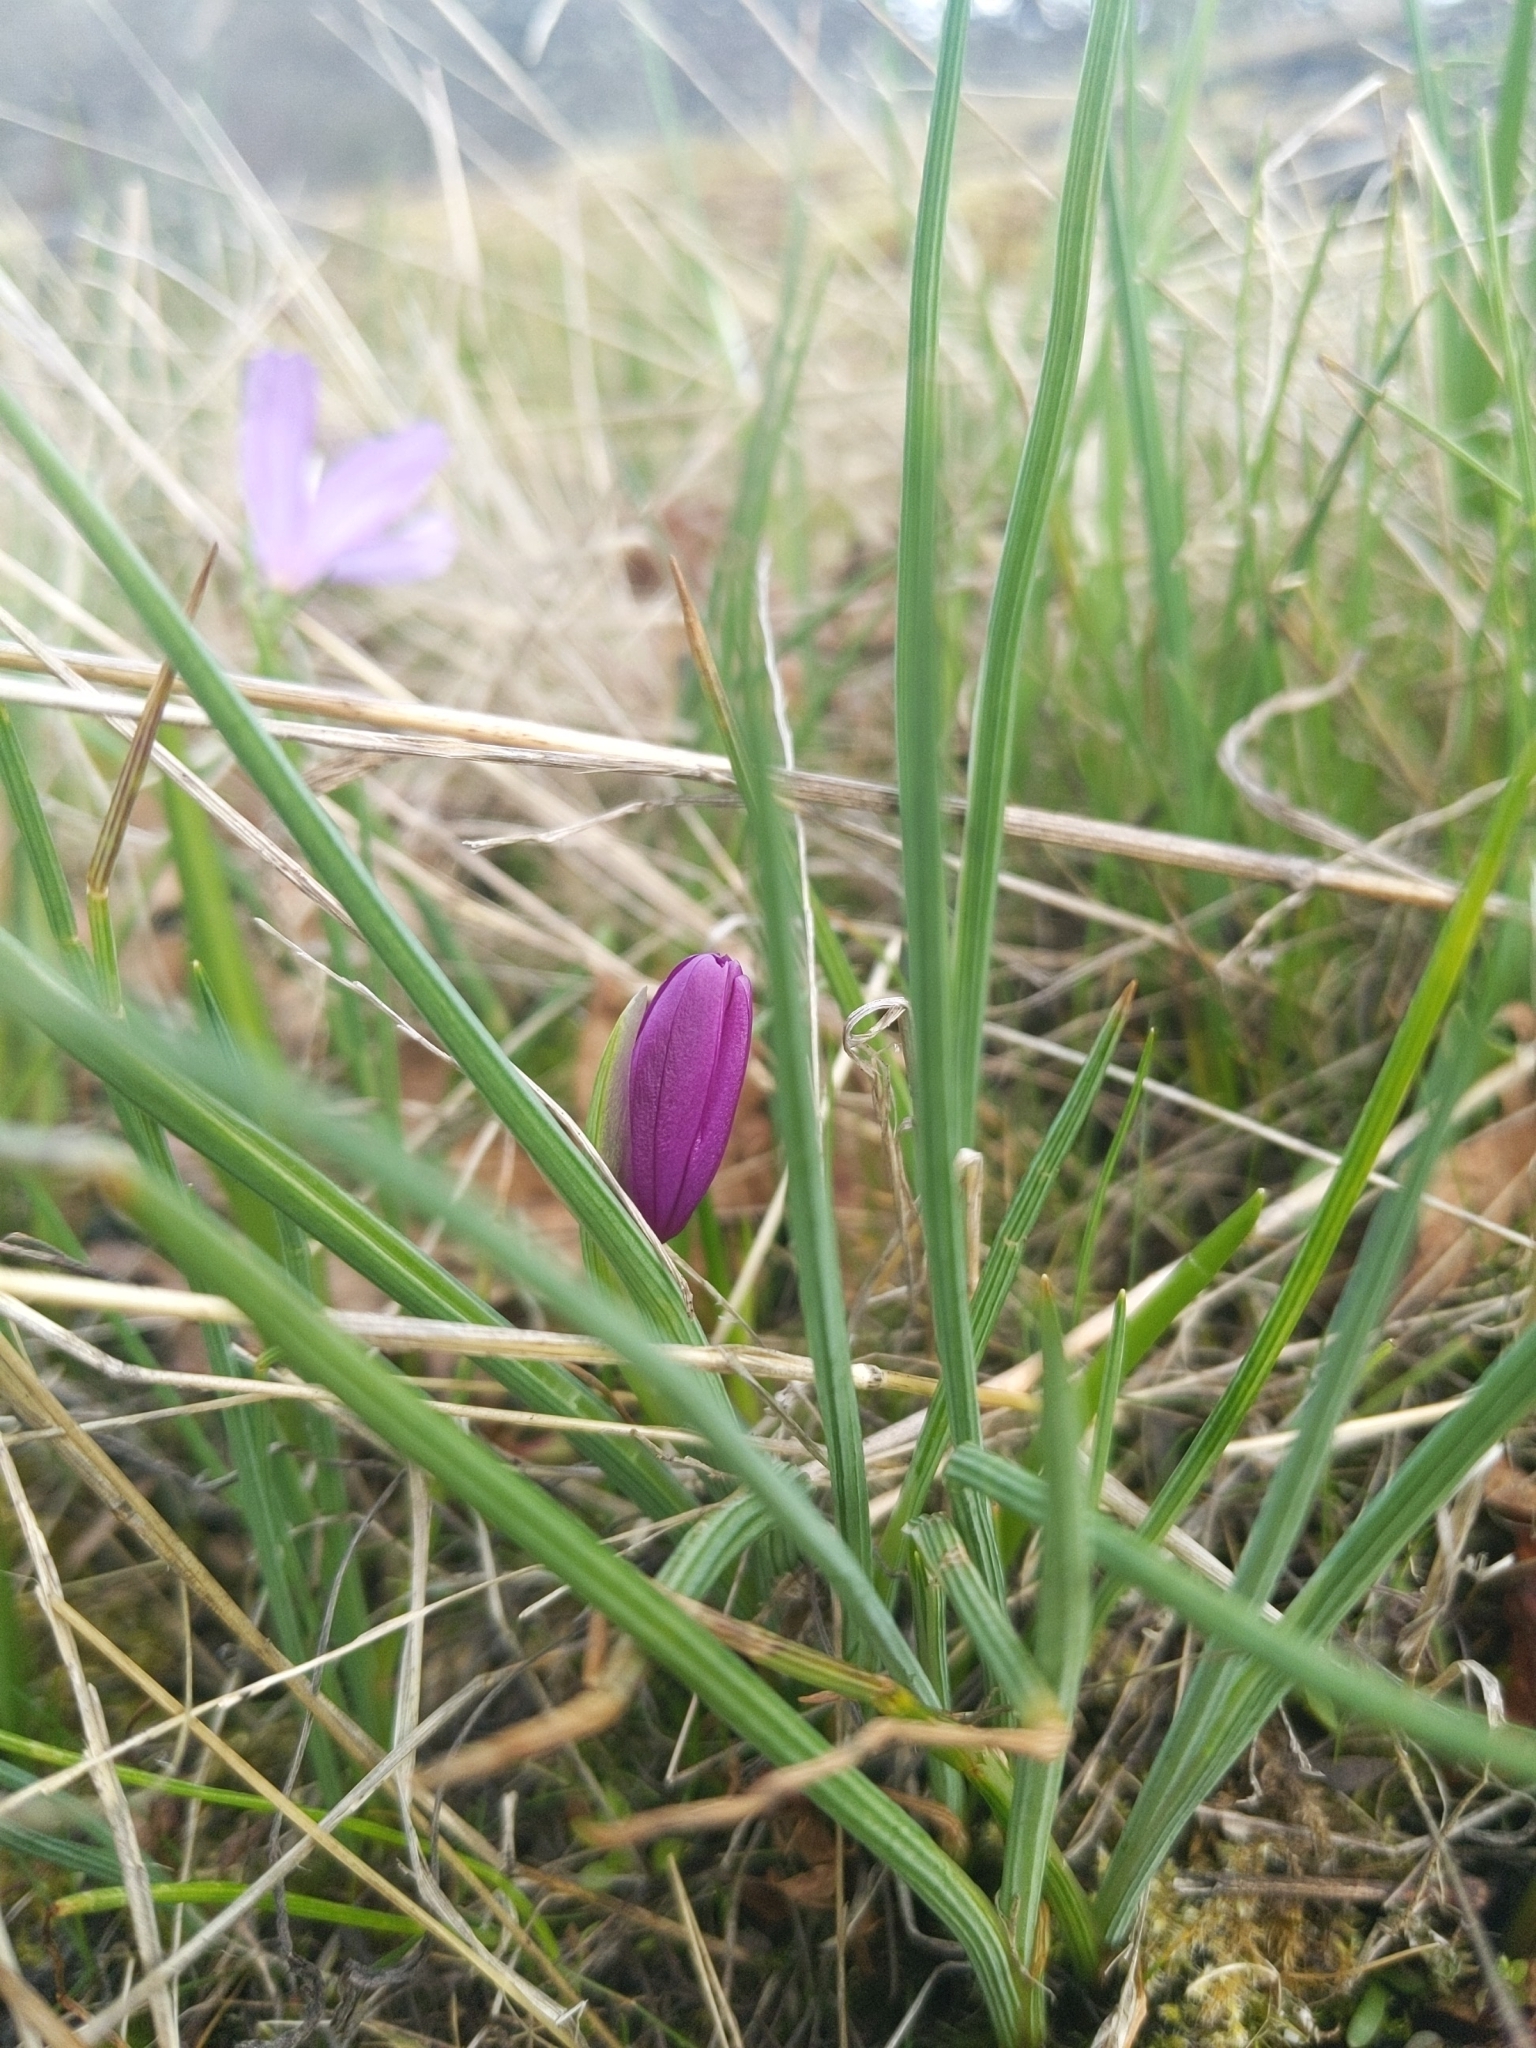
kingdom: Plantae
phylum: Tracheophyta
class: Liliopsida
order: Asparagales
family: Iridaceae
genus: Olsynium
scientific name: Olsynium douglasii
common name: Douglas' grasswidow
